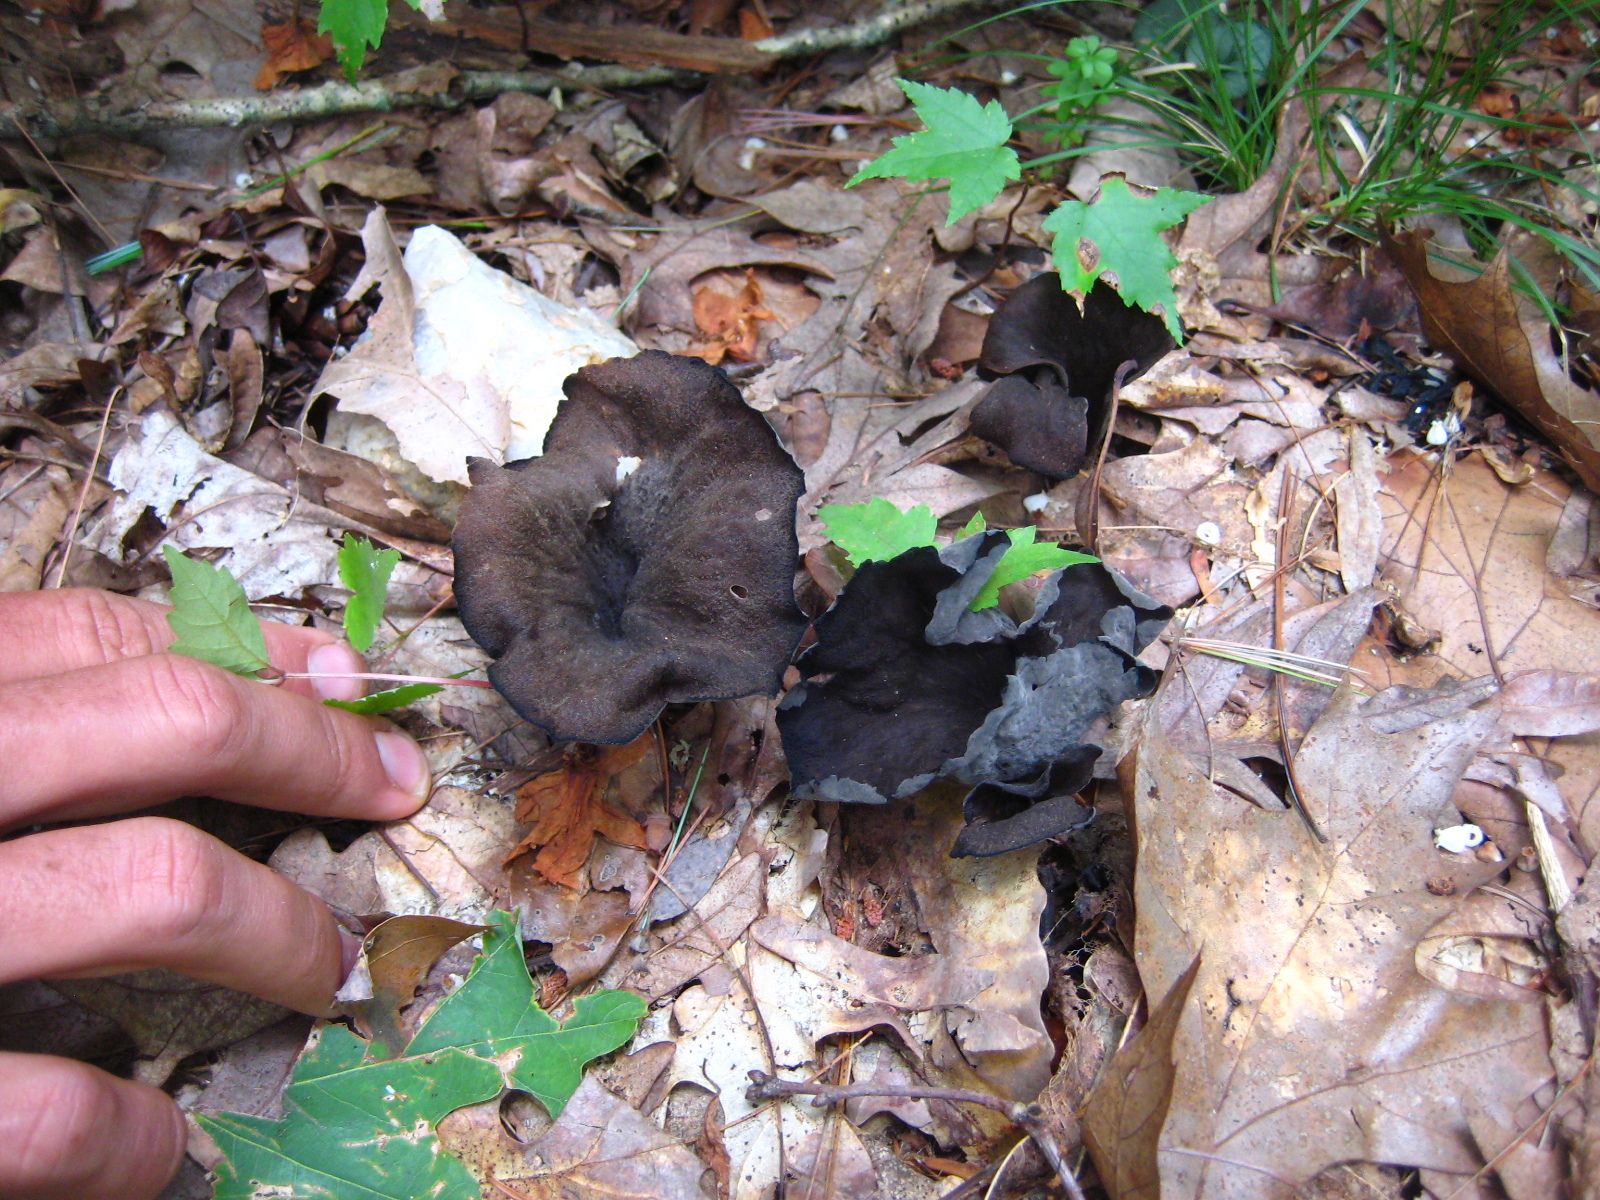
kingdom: Fungi
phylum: Basidiomycota
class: Agaricomycetes
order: Cantharellales
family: Hydnaceae
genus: Craterellus
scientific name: Craterellus cornucopioides
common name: Horn of plenty
